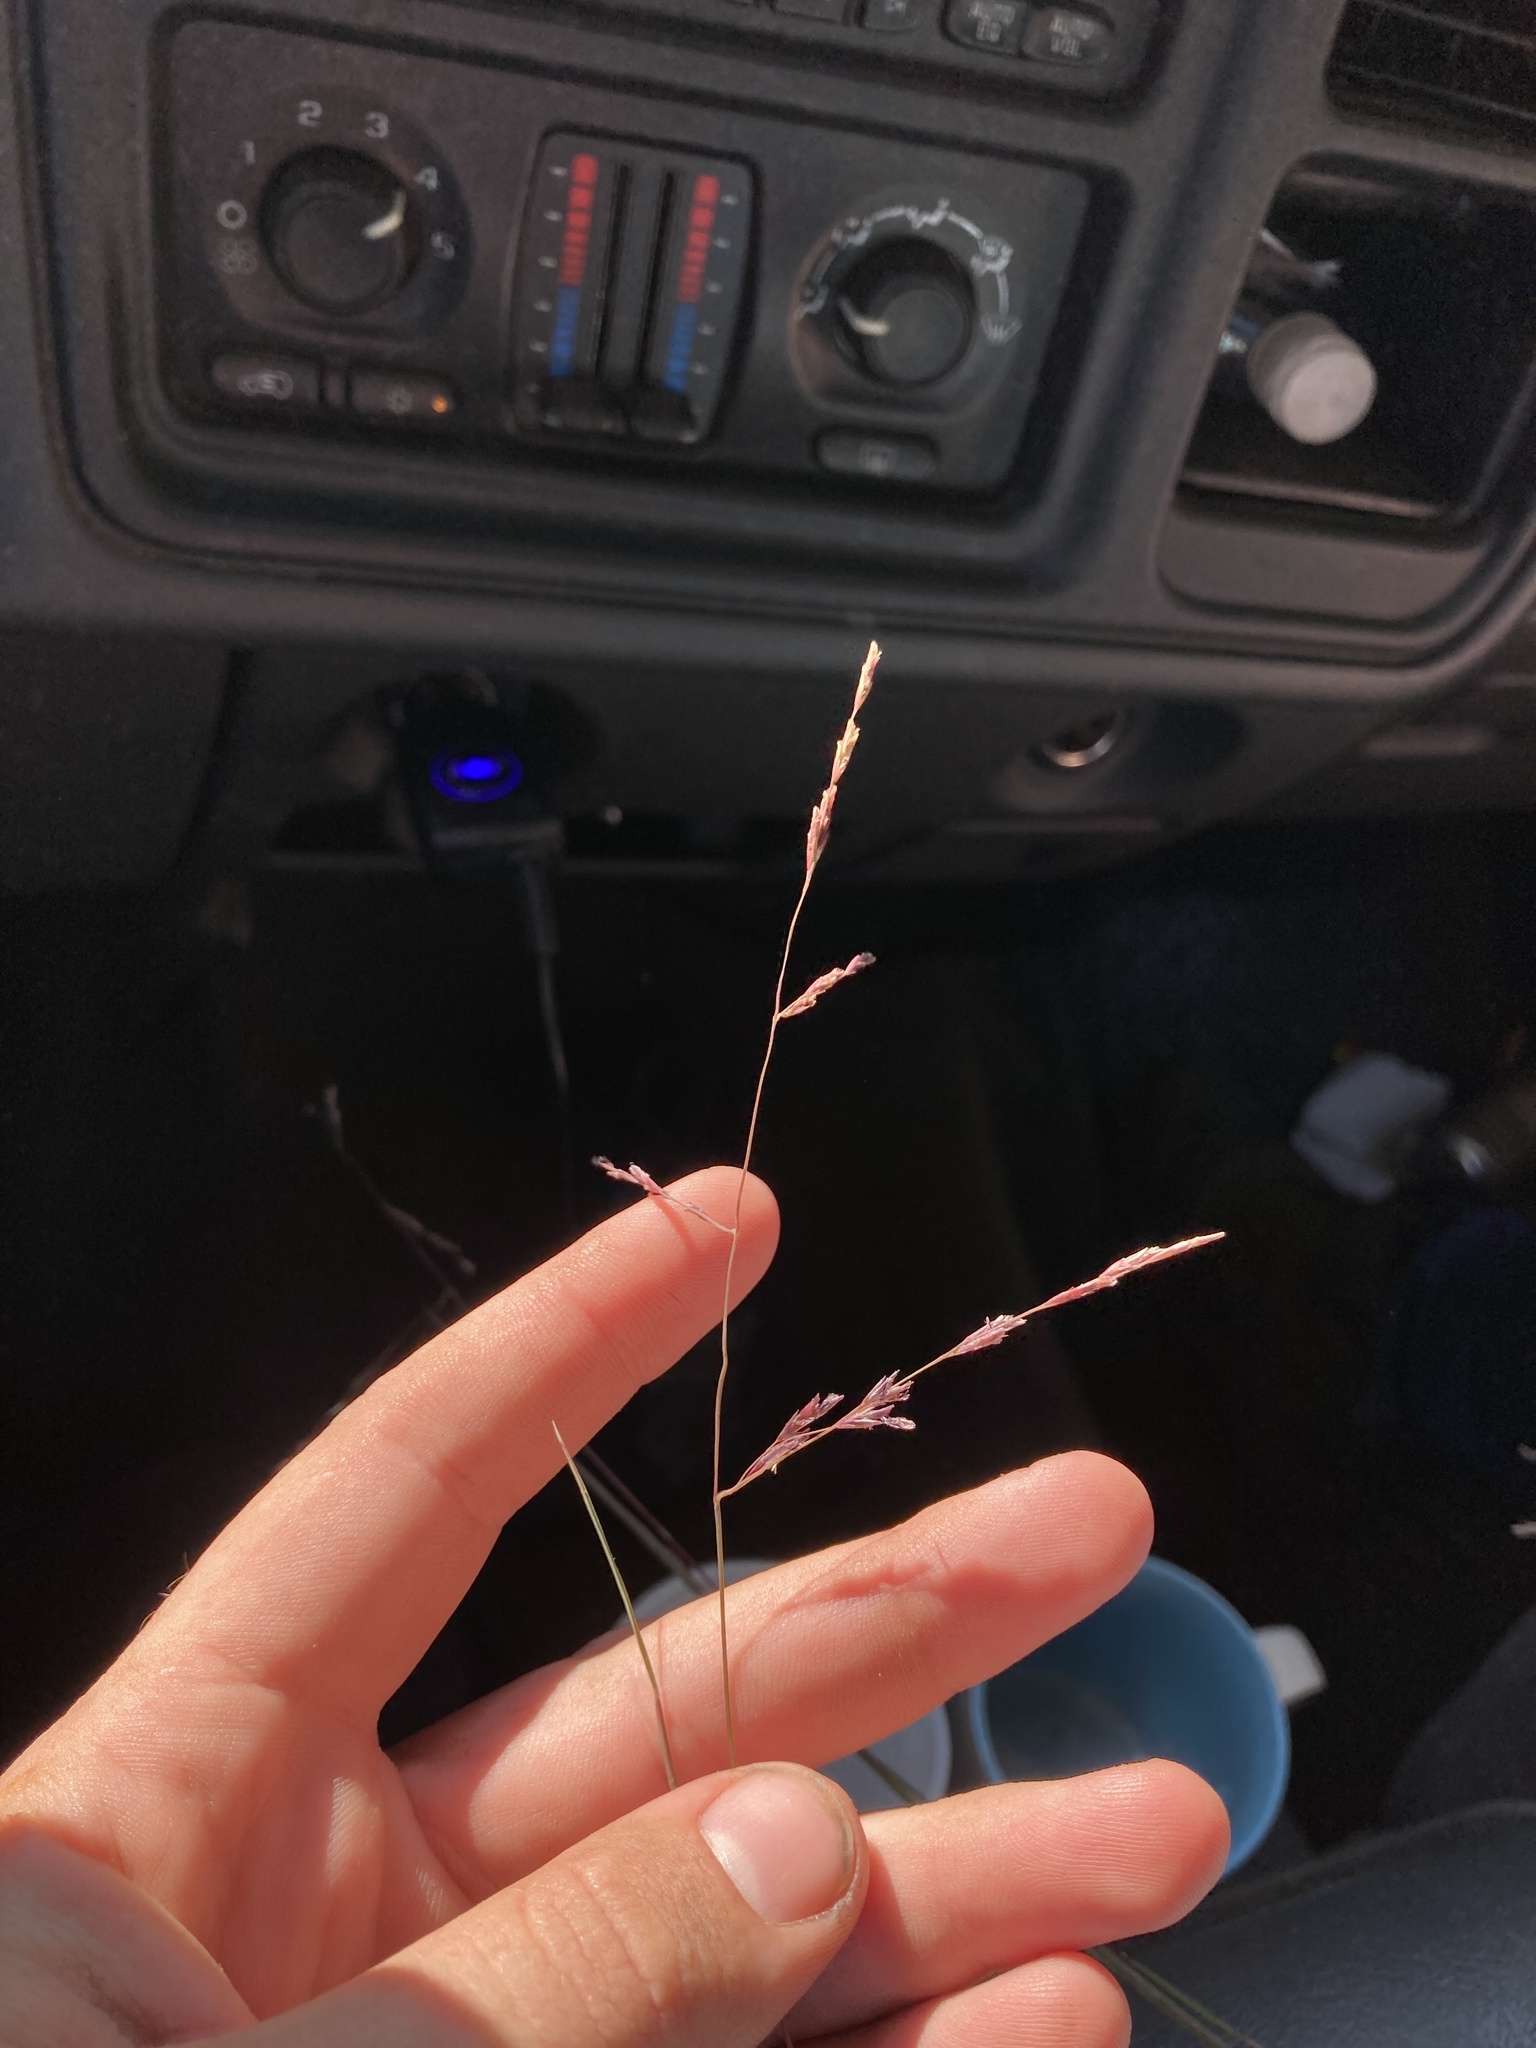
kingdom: Plantae
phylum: Tracheophyta
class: Liliopsida
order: Poales
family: Poaceae
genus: Triplasis
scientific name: Triplasis purpurea
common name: Purple sand grass
